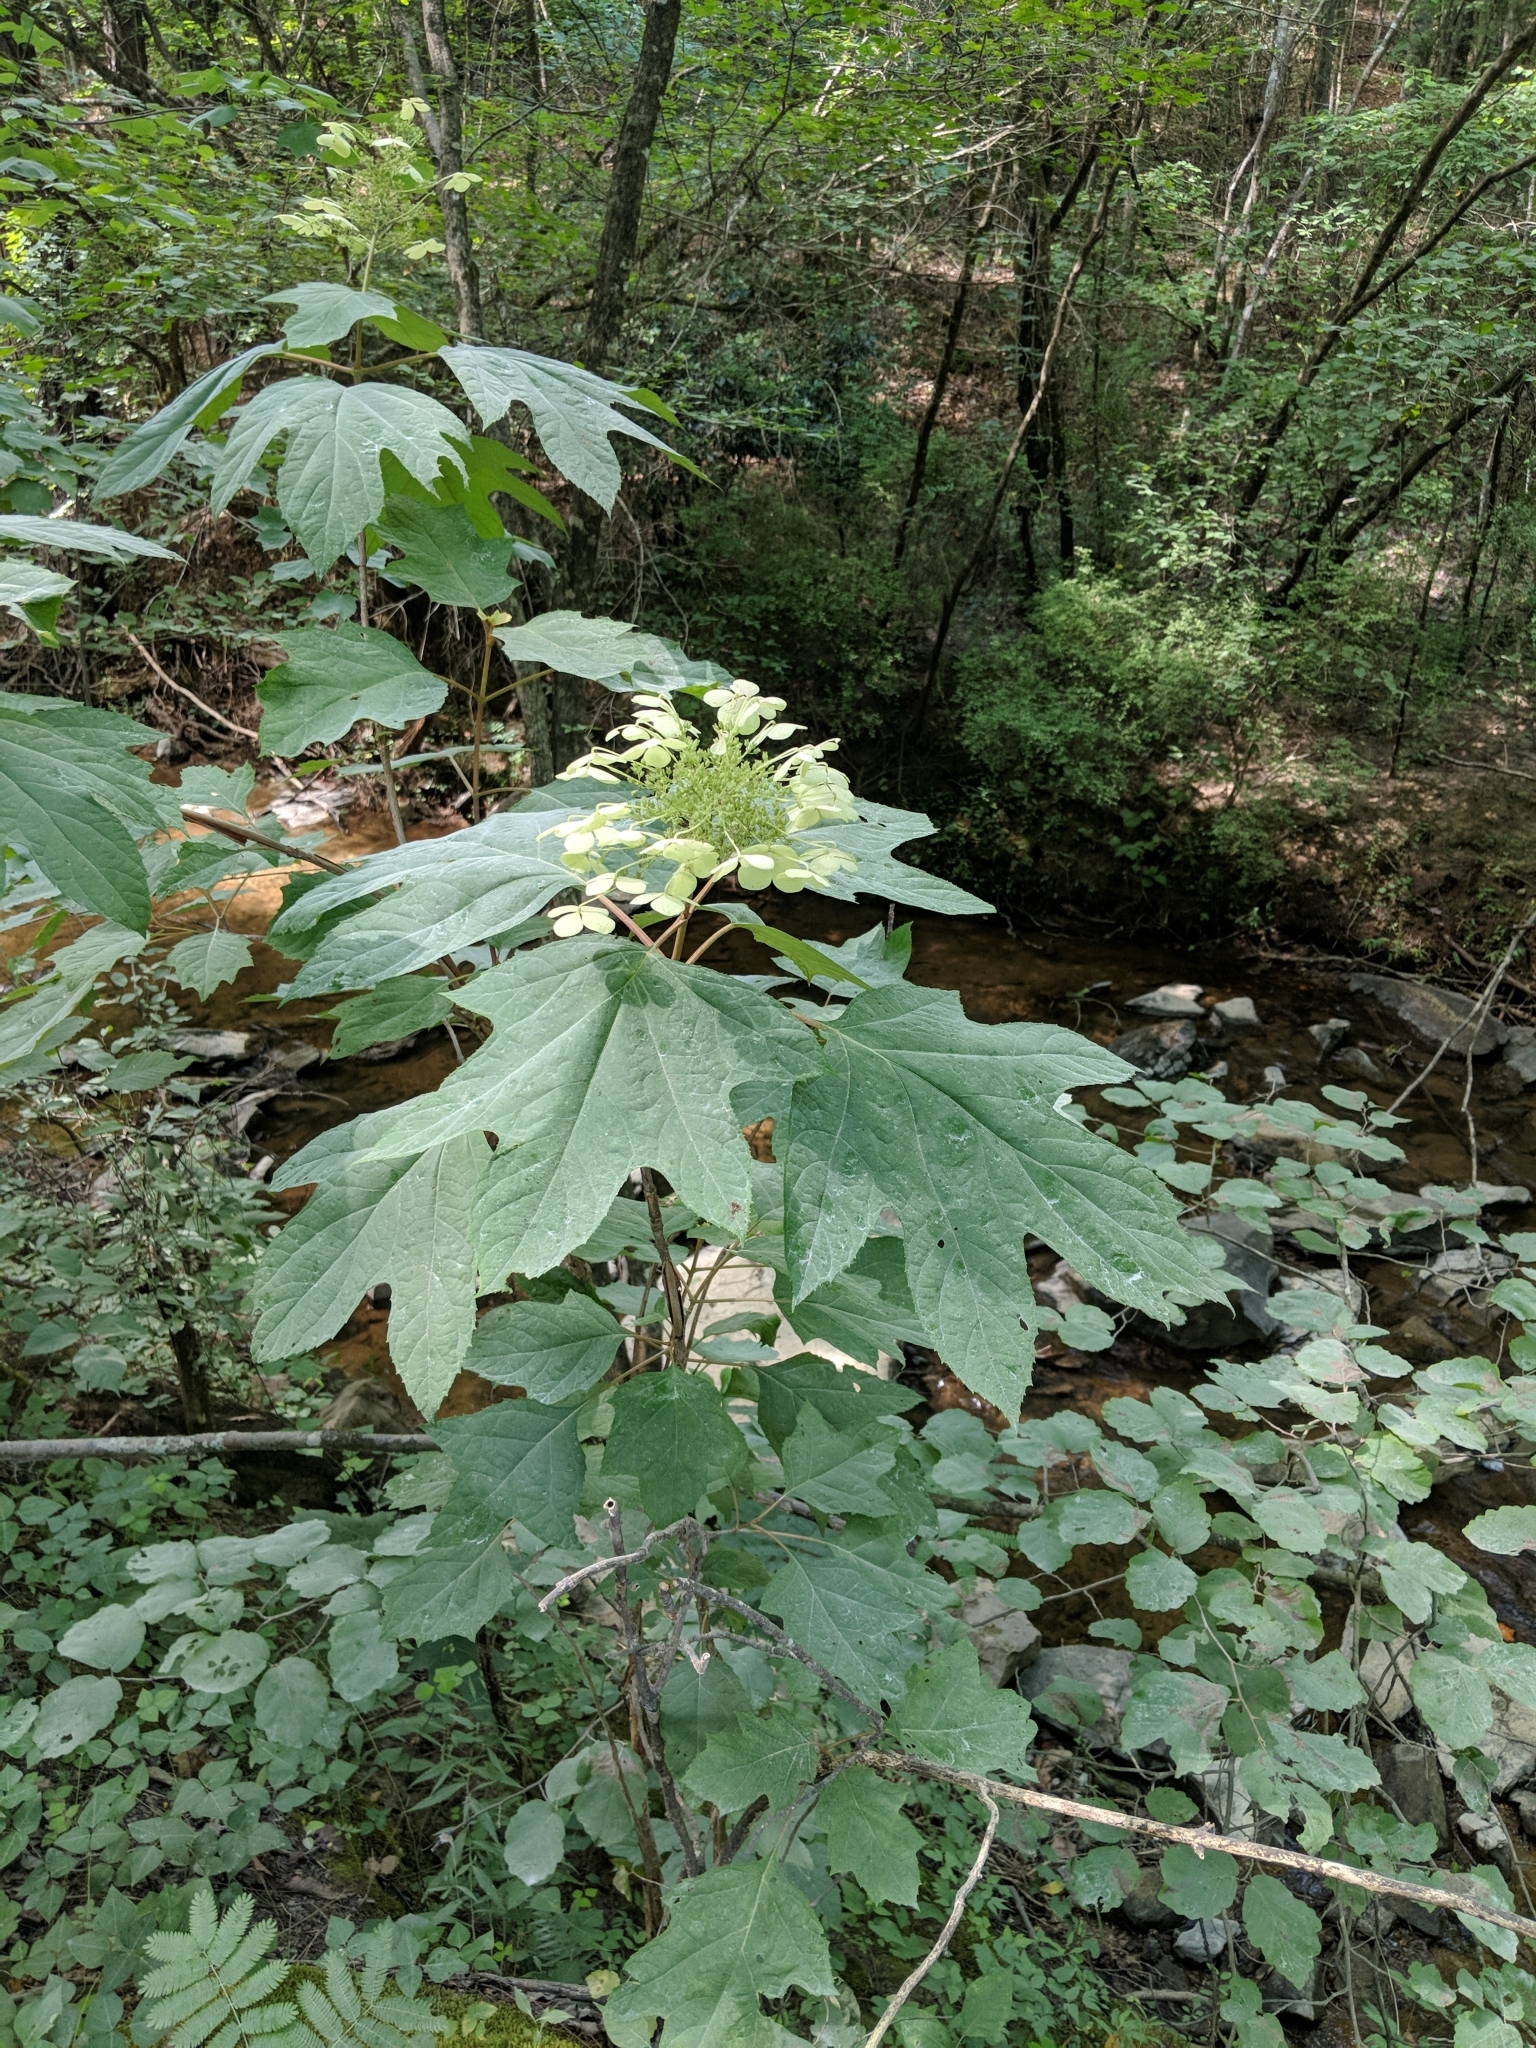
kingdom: Plantae
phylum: Tracheophyta
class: Magnoliopsida
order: Cornales
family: Hydrangeaceae
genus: Hydrangea
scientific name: Hydrangea quercifolia
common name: Oak-leaf hydrangea
